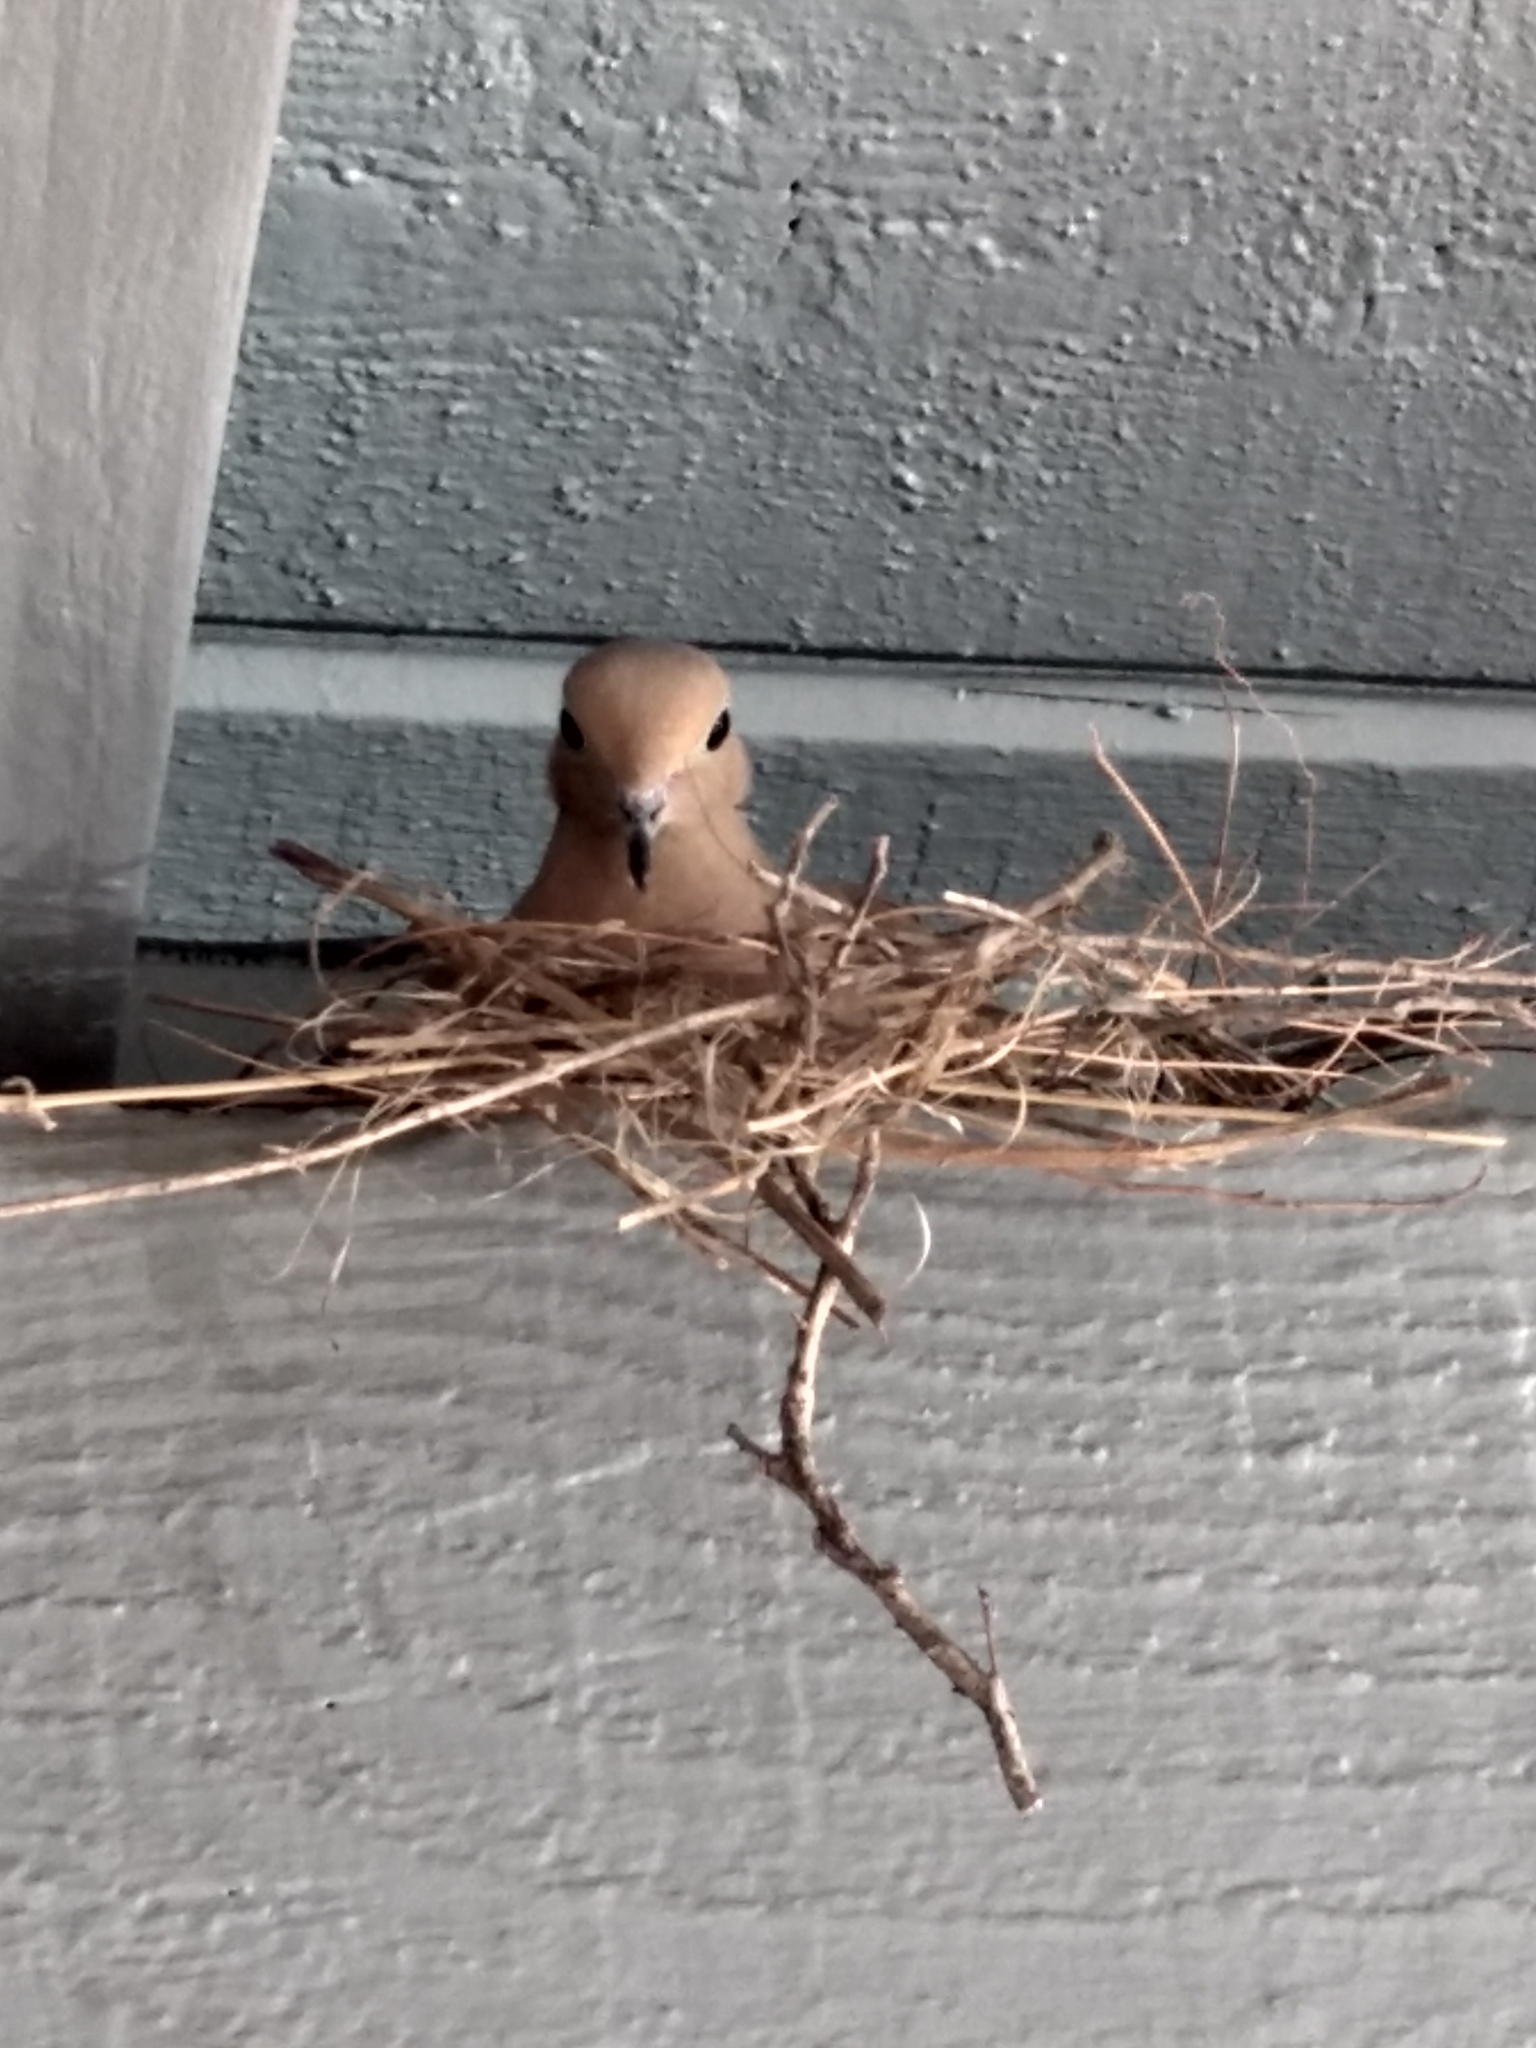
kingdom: Animalia
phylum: Chordata
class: Aves
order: Columbiformes
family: Columbidae
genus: Zenaida
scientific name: Zenaida macroura
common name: Mourning dove
